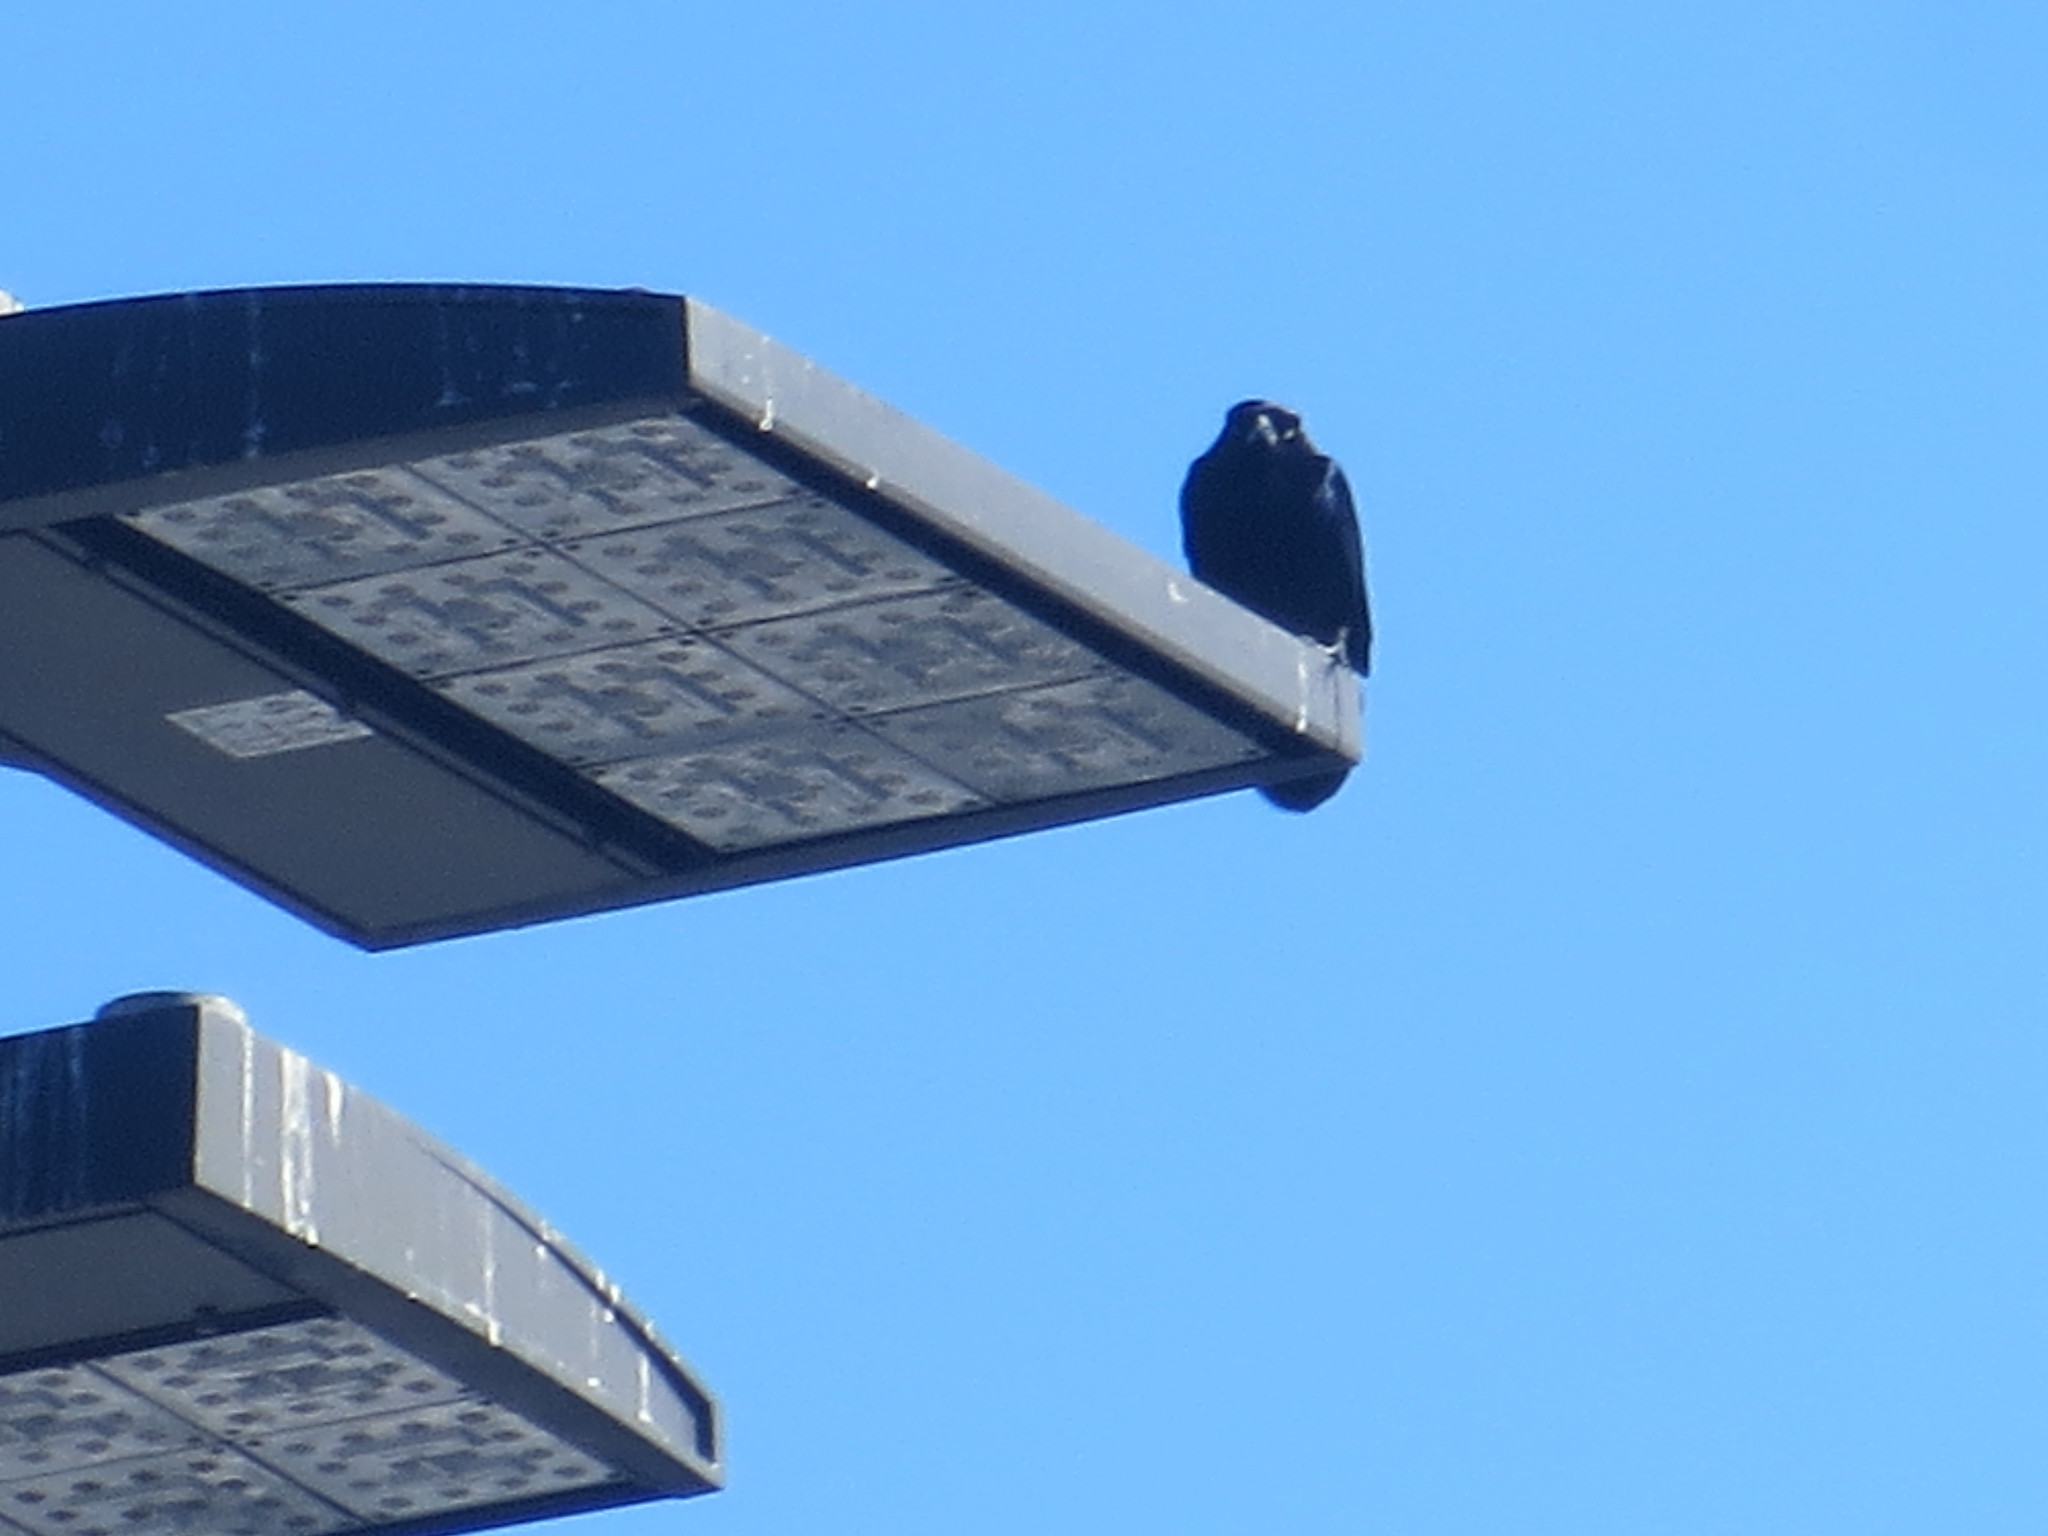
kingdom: Animalia
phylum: Chordata
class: Aves
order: Passeriformes
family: Icteridae
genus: Quiscalus
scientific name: Quiscalus major
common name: Boat-tailed grackle
